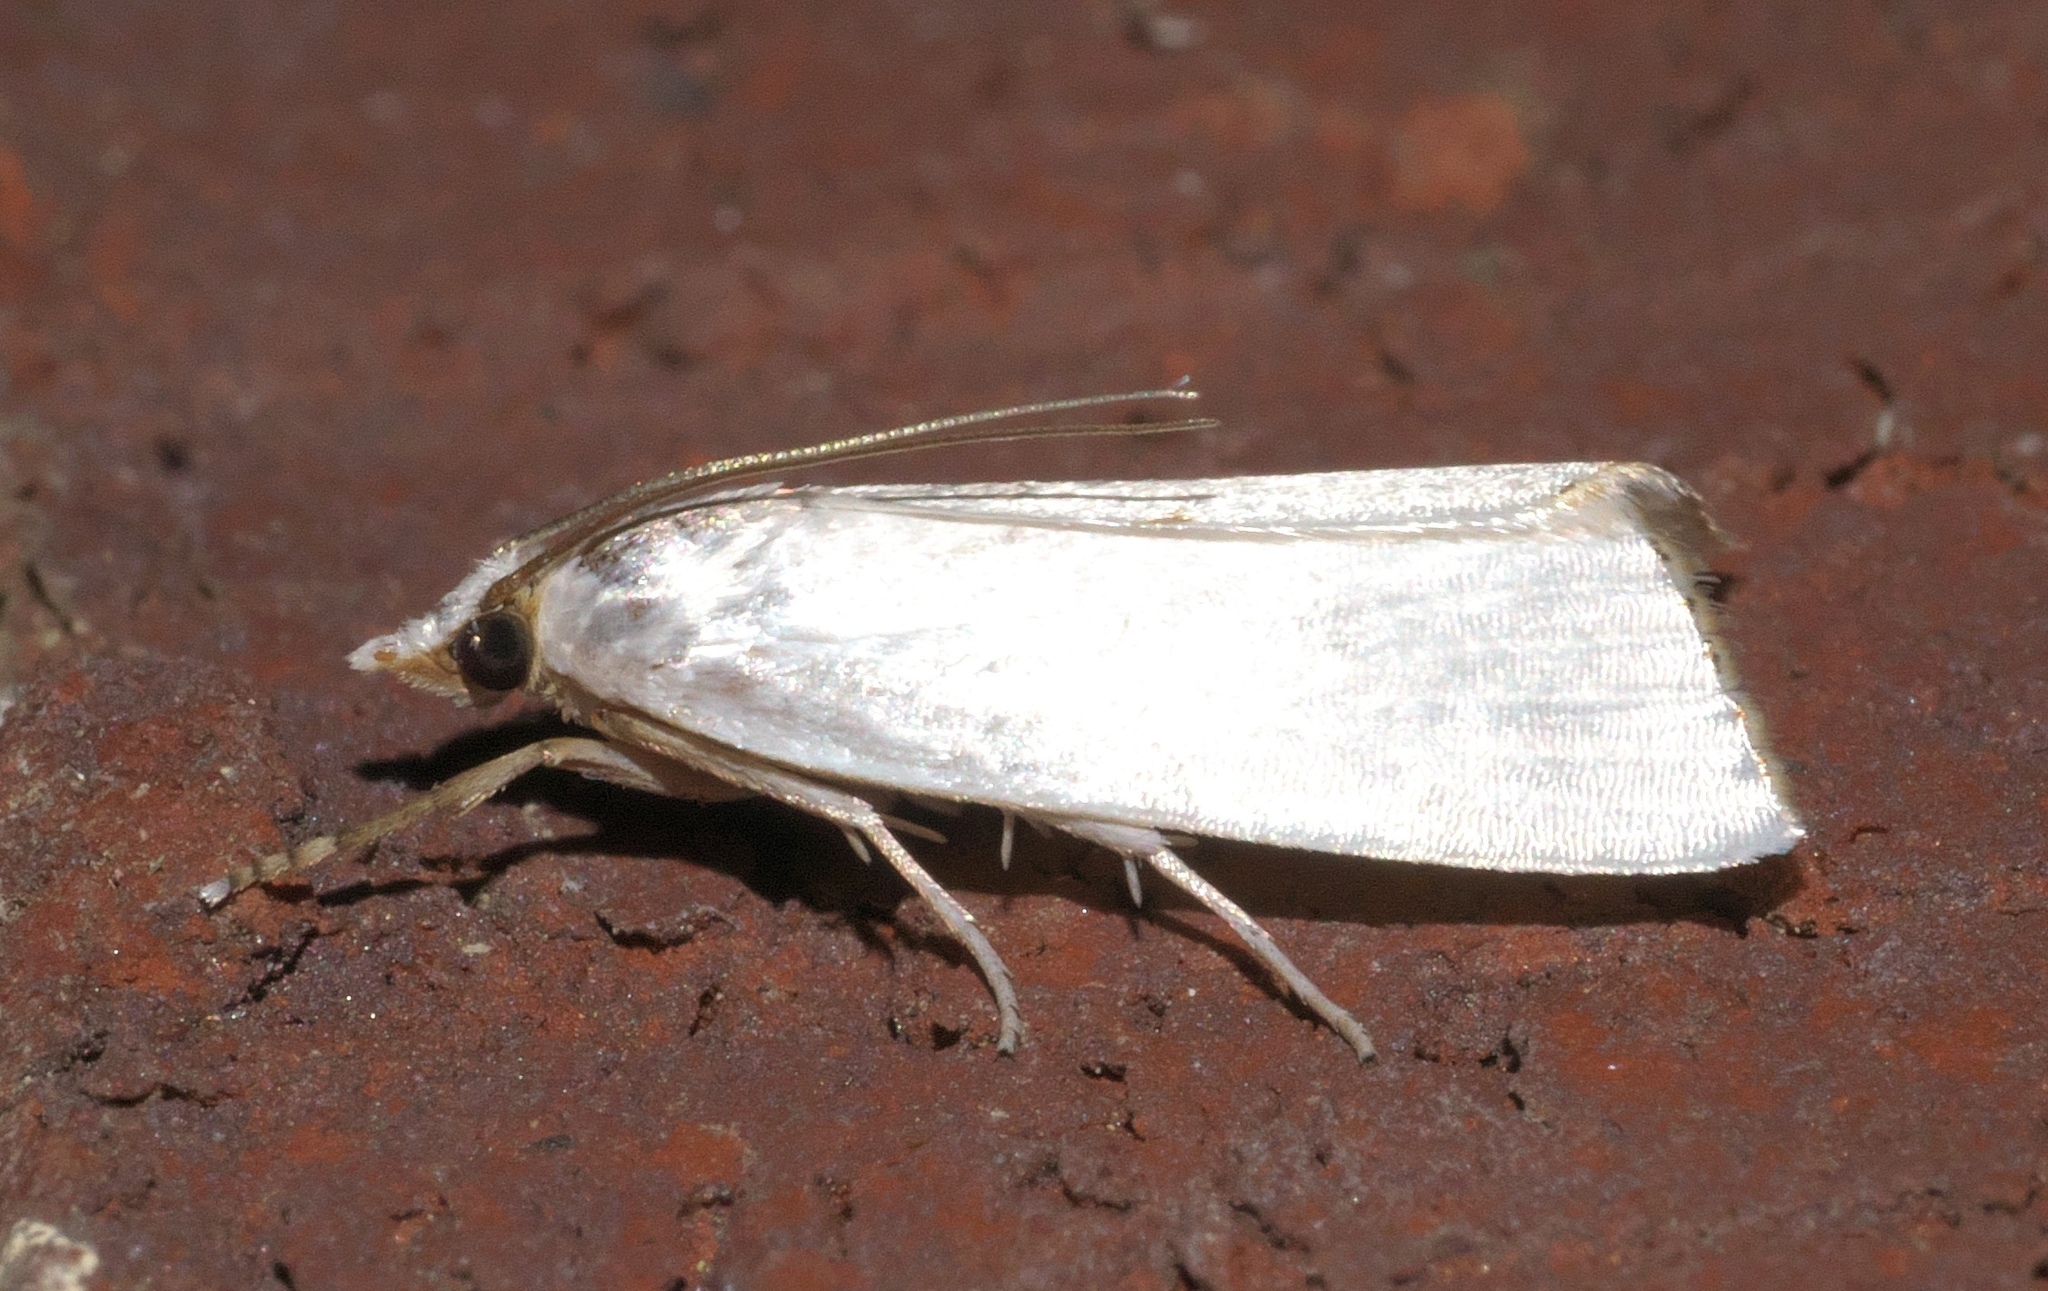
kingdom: Animalia
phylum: Arthropoda
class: Insecta
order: Lepidoptera
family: Crambidae
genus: Argyria
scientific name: Argyria nivalis
